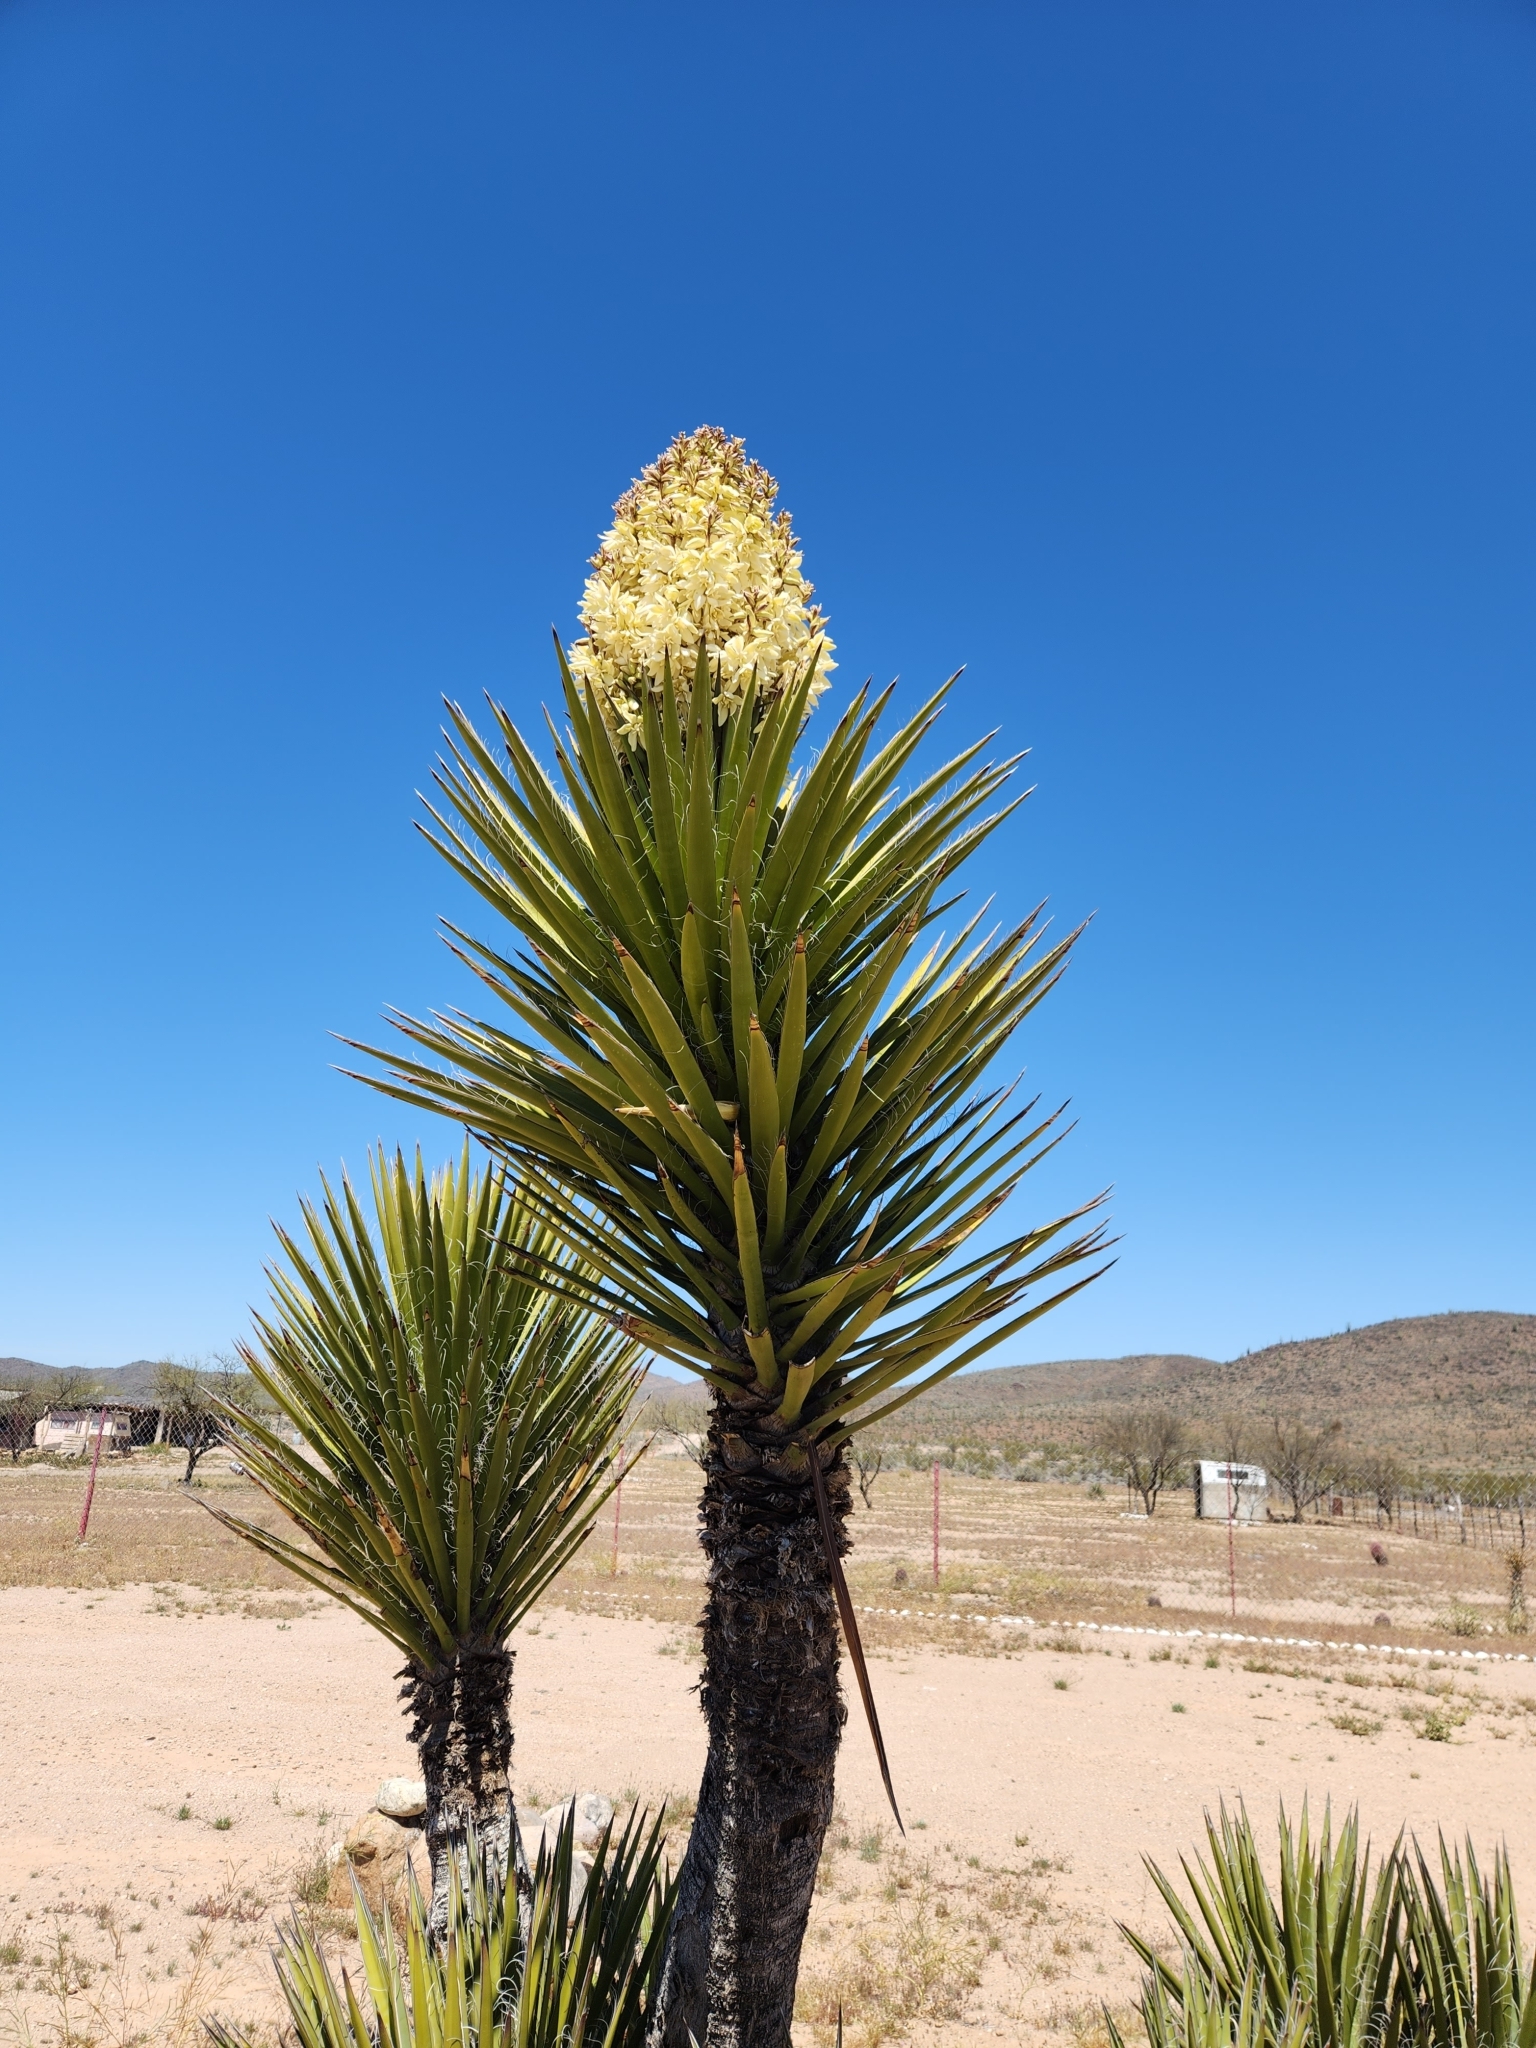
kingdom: Plantae
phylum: Tracheophyta
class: Liliopsida
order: Asparagales
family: Asparagaceae
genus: Yucca
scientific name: Yucca valida
